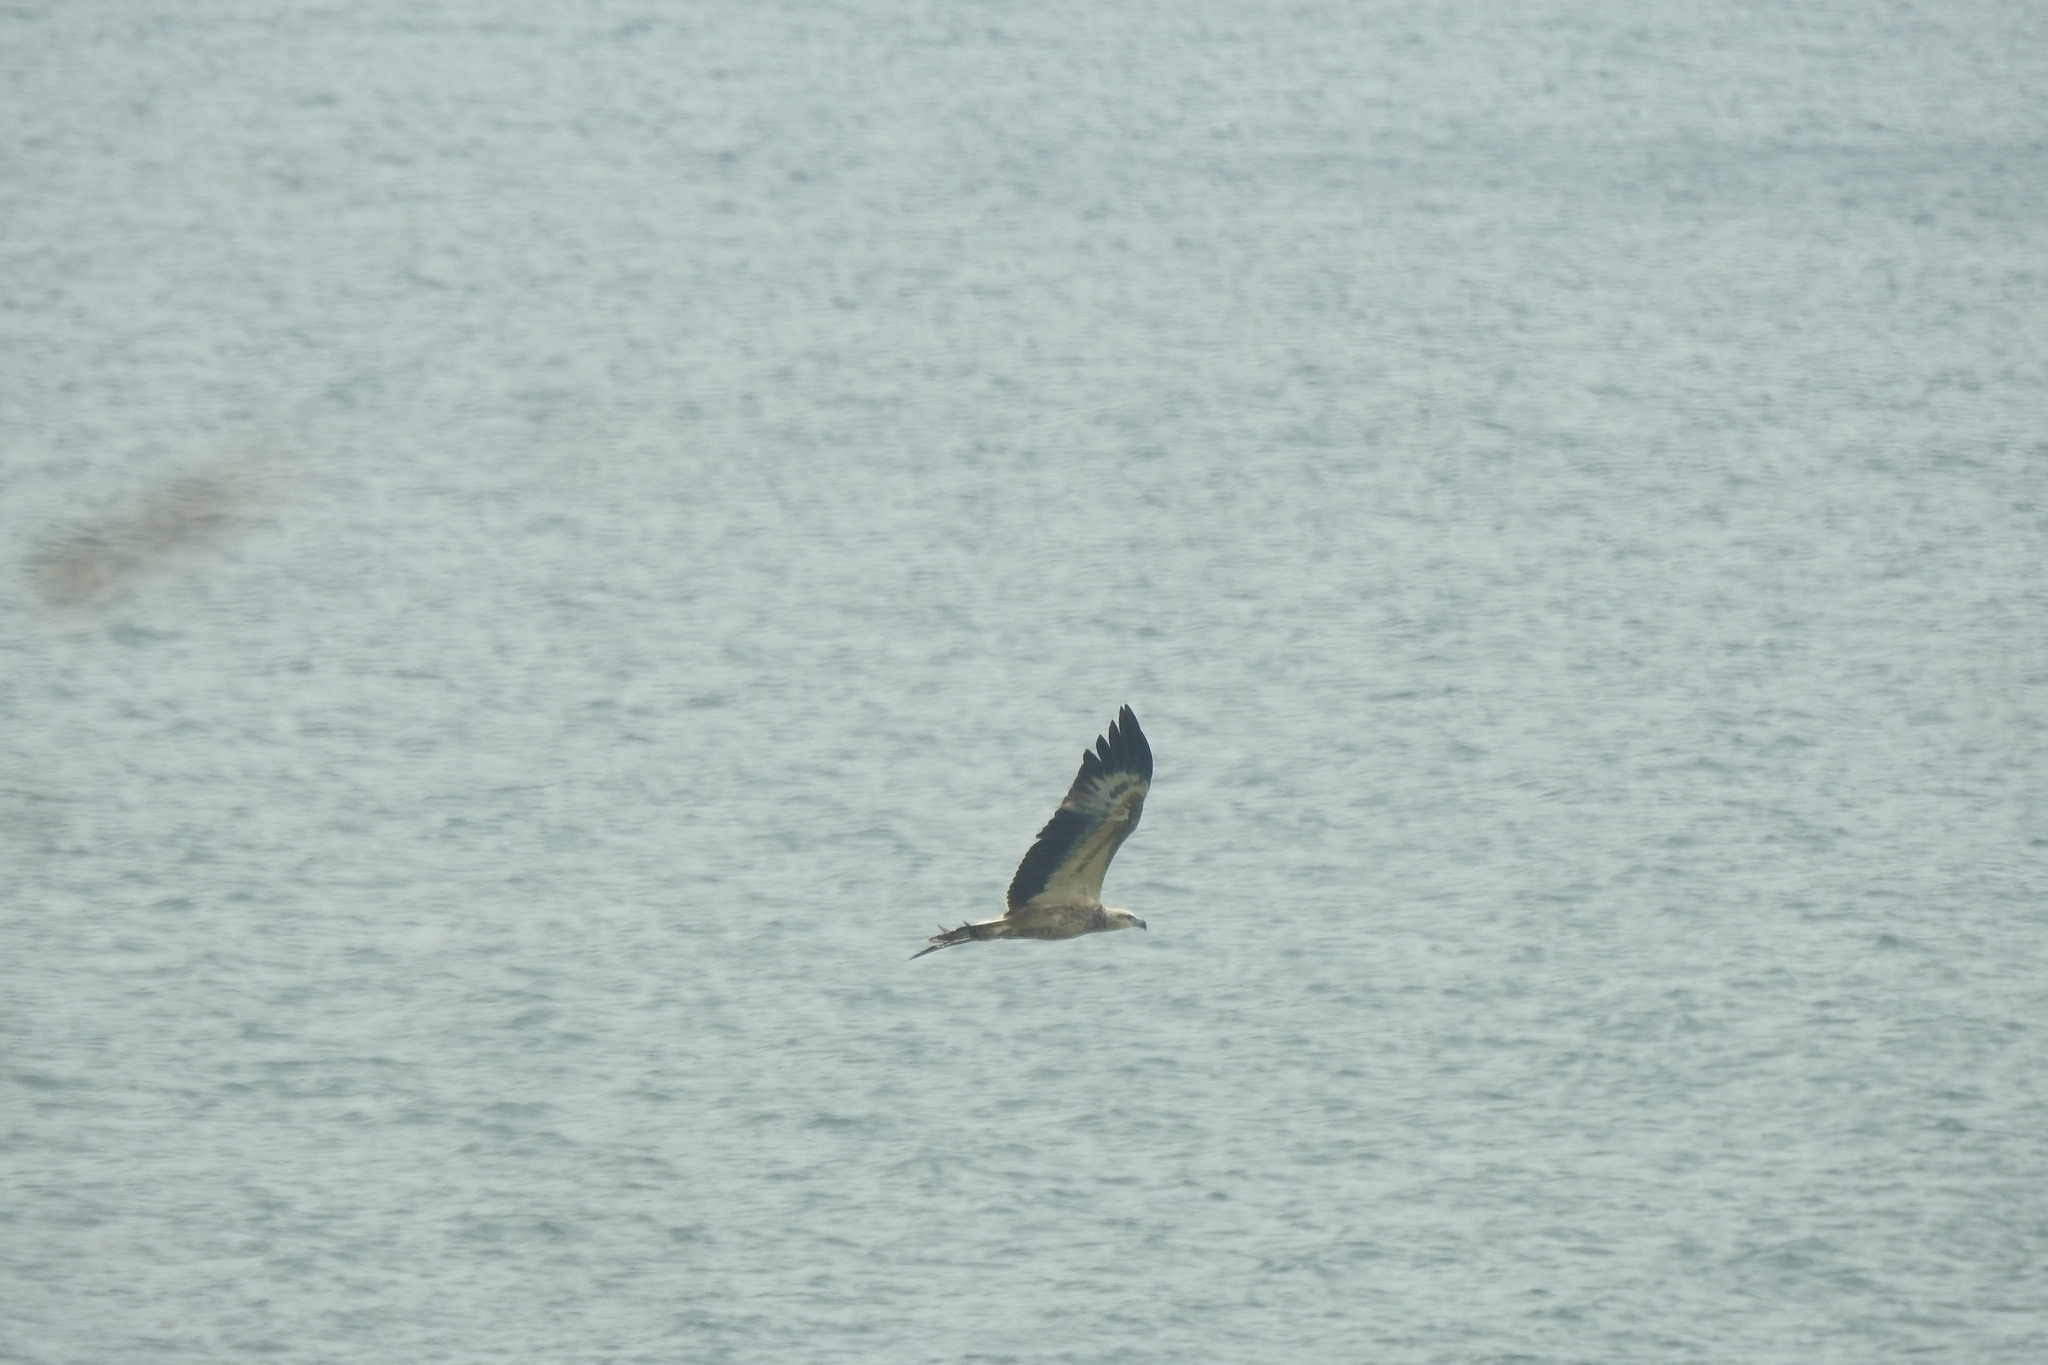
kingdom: Animalia
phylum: Chordata
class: Aves
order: Accipitriformes
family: Accipitridae
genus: Haliaeetus
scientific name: Haliaeetus leucogaster
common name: White-bellied sea eagle
